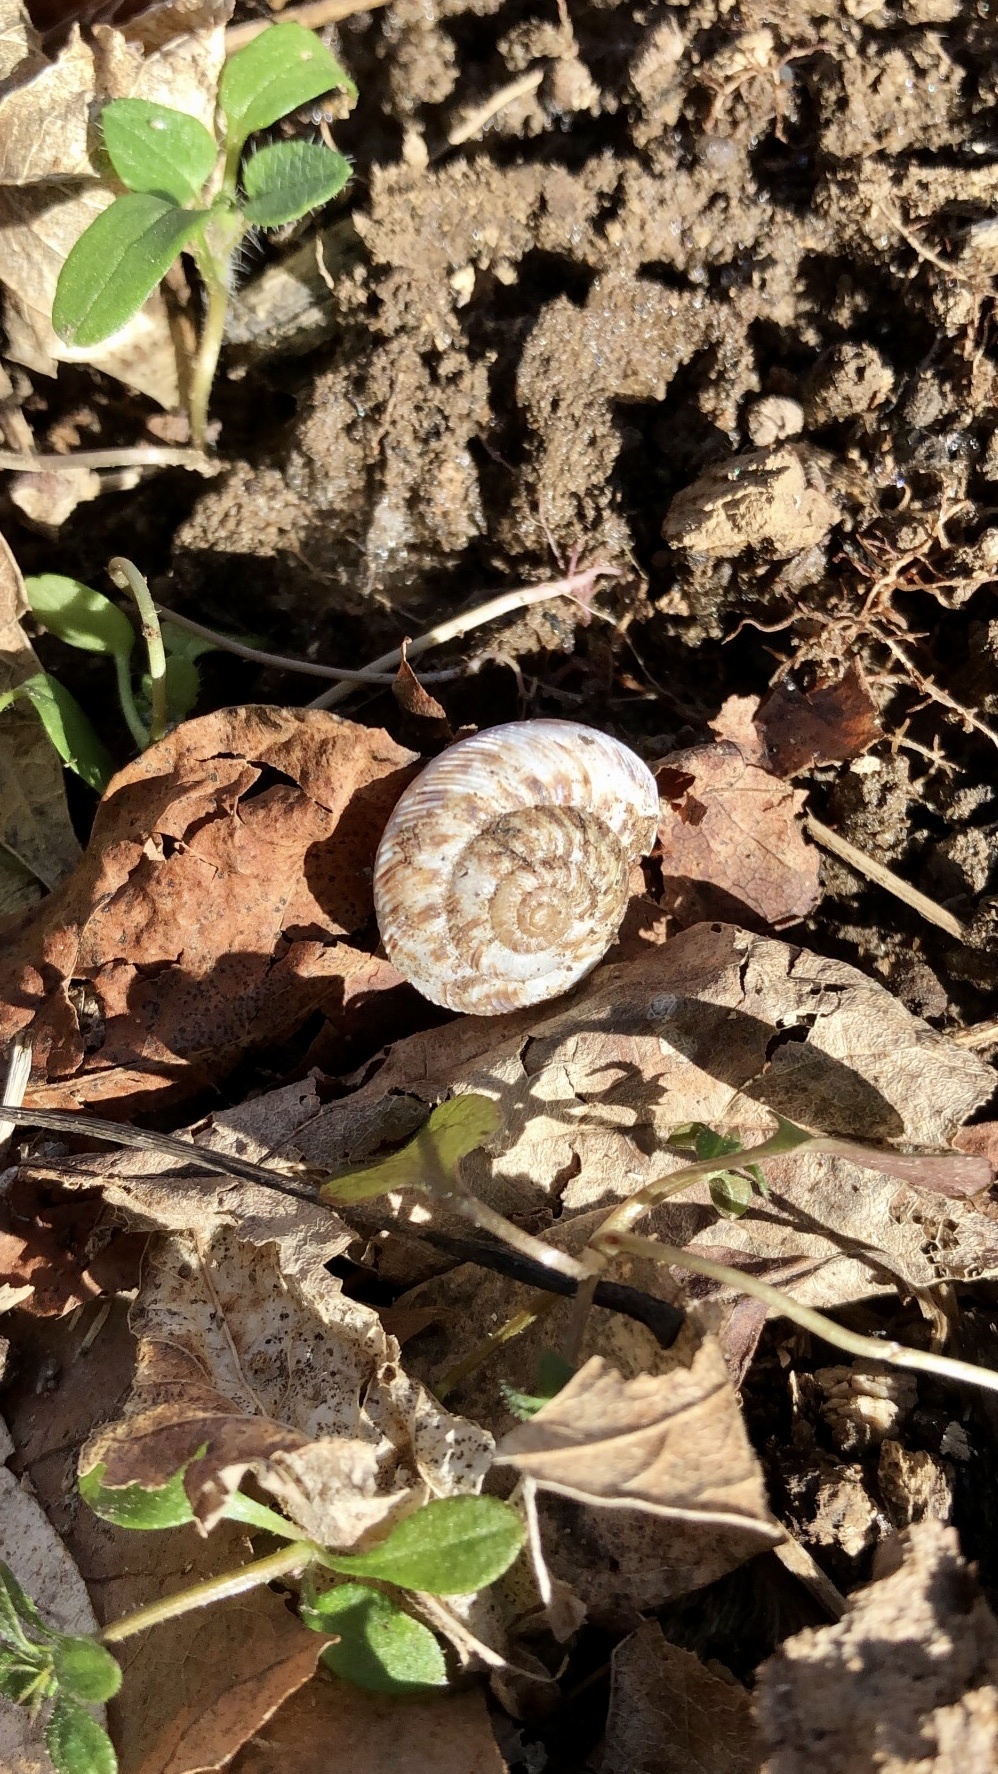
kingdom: Animalia
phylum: Mollusca
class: Gastropoda
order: Stylommatophora
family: Discidae
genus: Anguispira
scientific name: Anguispira alternata
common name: Flamed tigersnail
